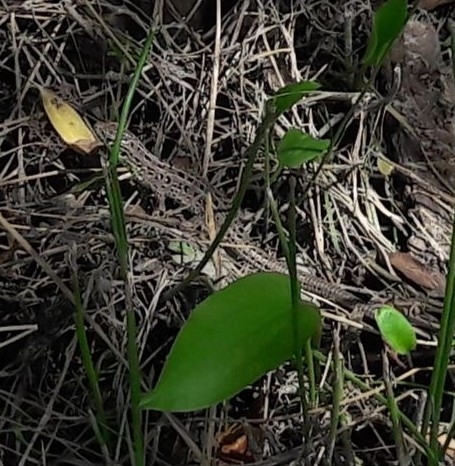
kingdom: Animalia
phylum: Chordata
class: Squamata
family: Lacertidae
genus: Lacerta
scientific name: Lacerta agilis
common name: Sand lizard
